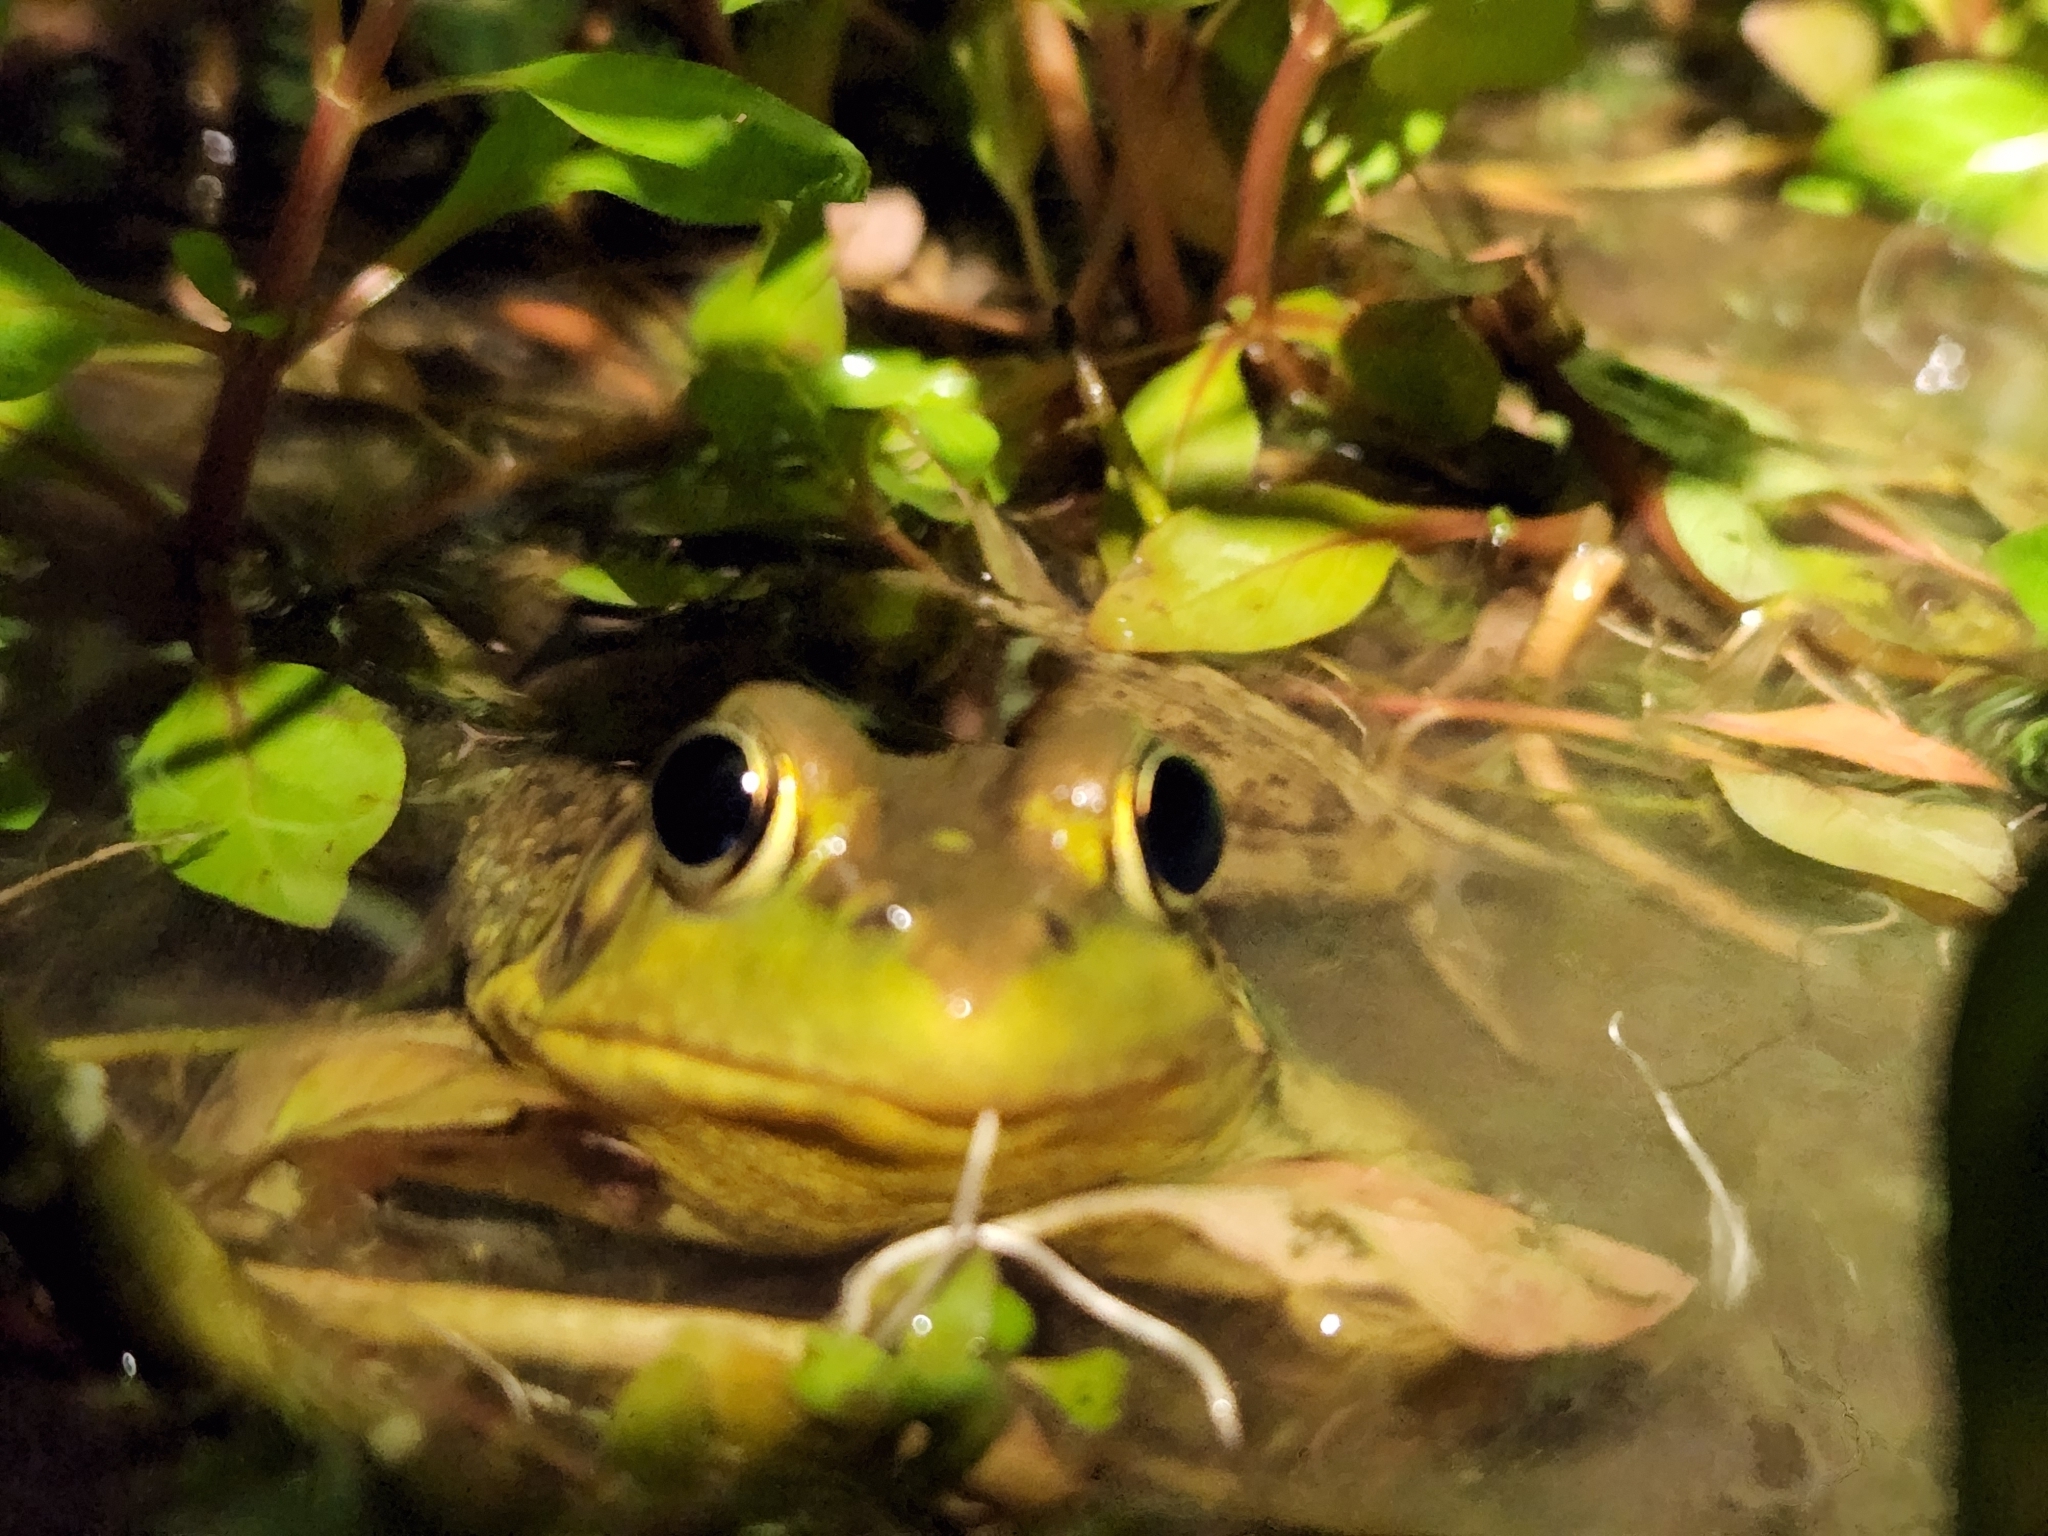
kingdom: Animalia
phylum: Chordata
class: Amphibia
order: Anura
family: Ranidae
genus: Lithobates
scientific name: Lithobates clamitans
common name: Green frog
